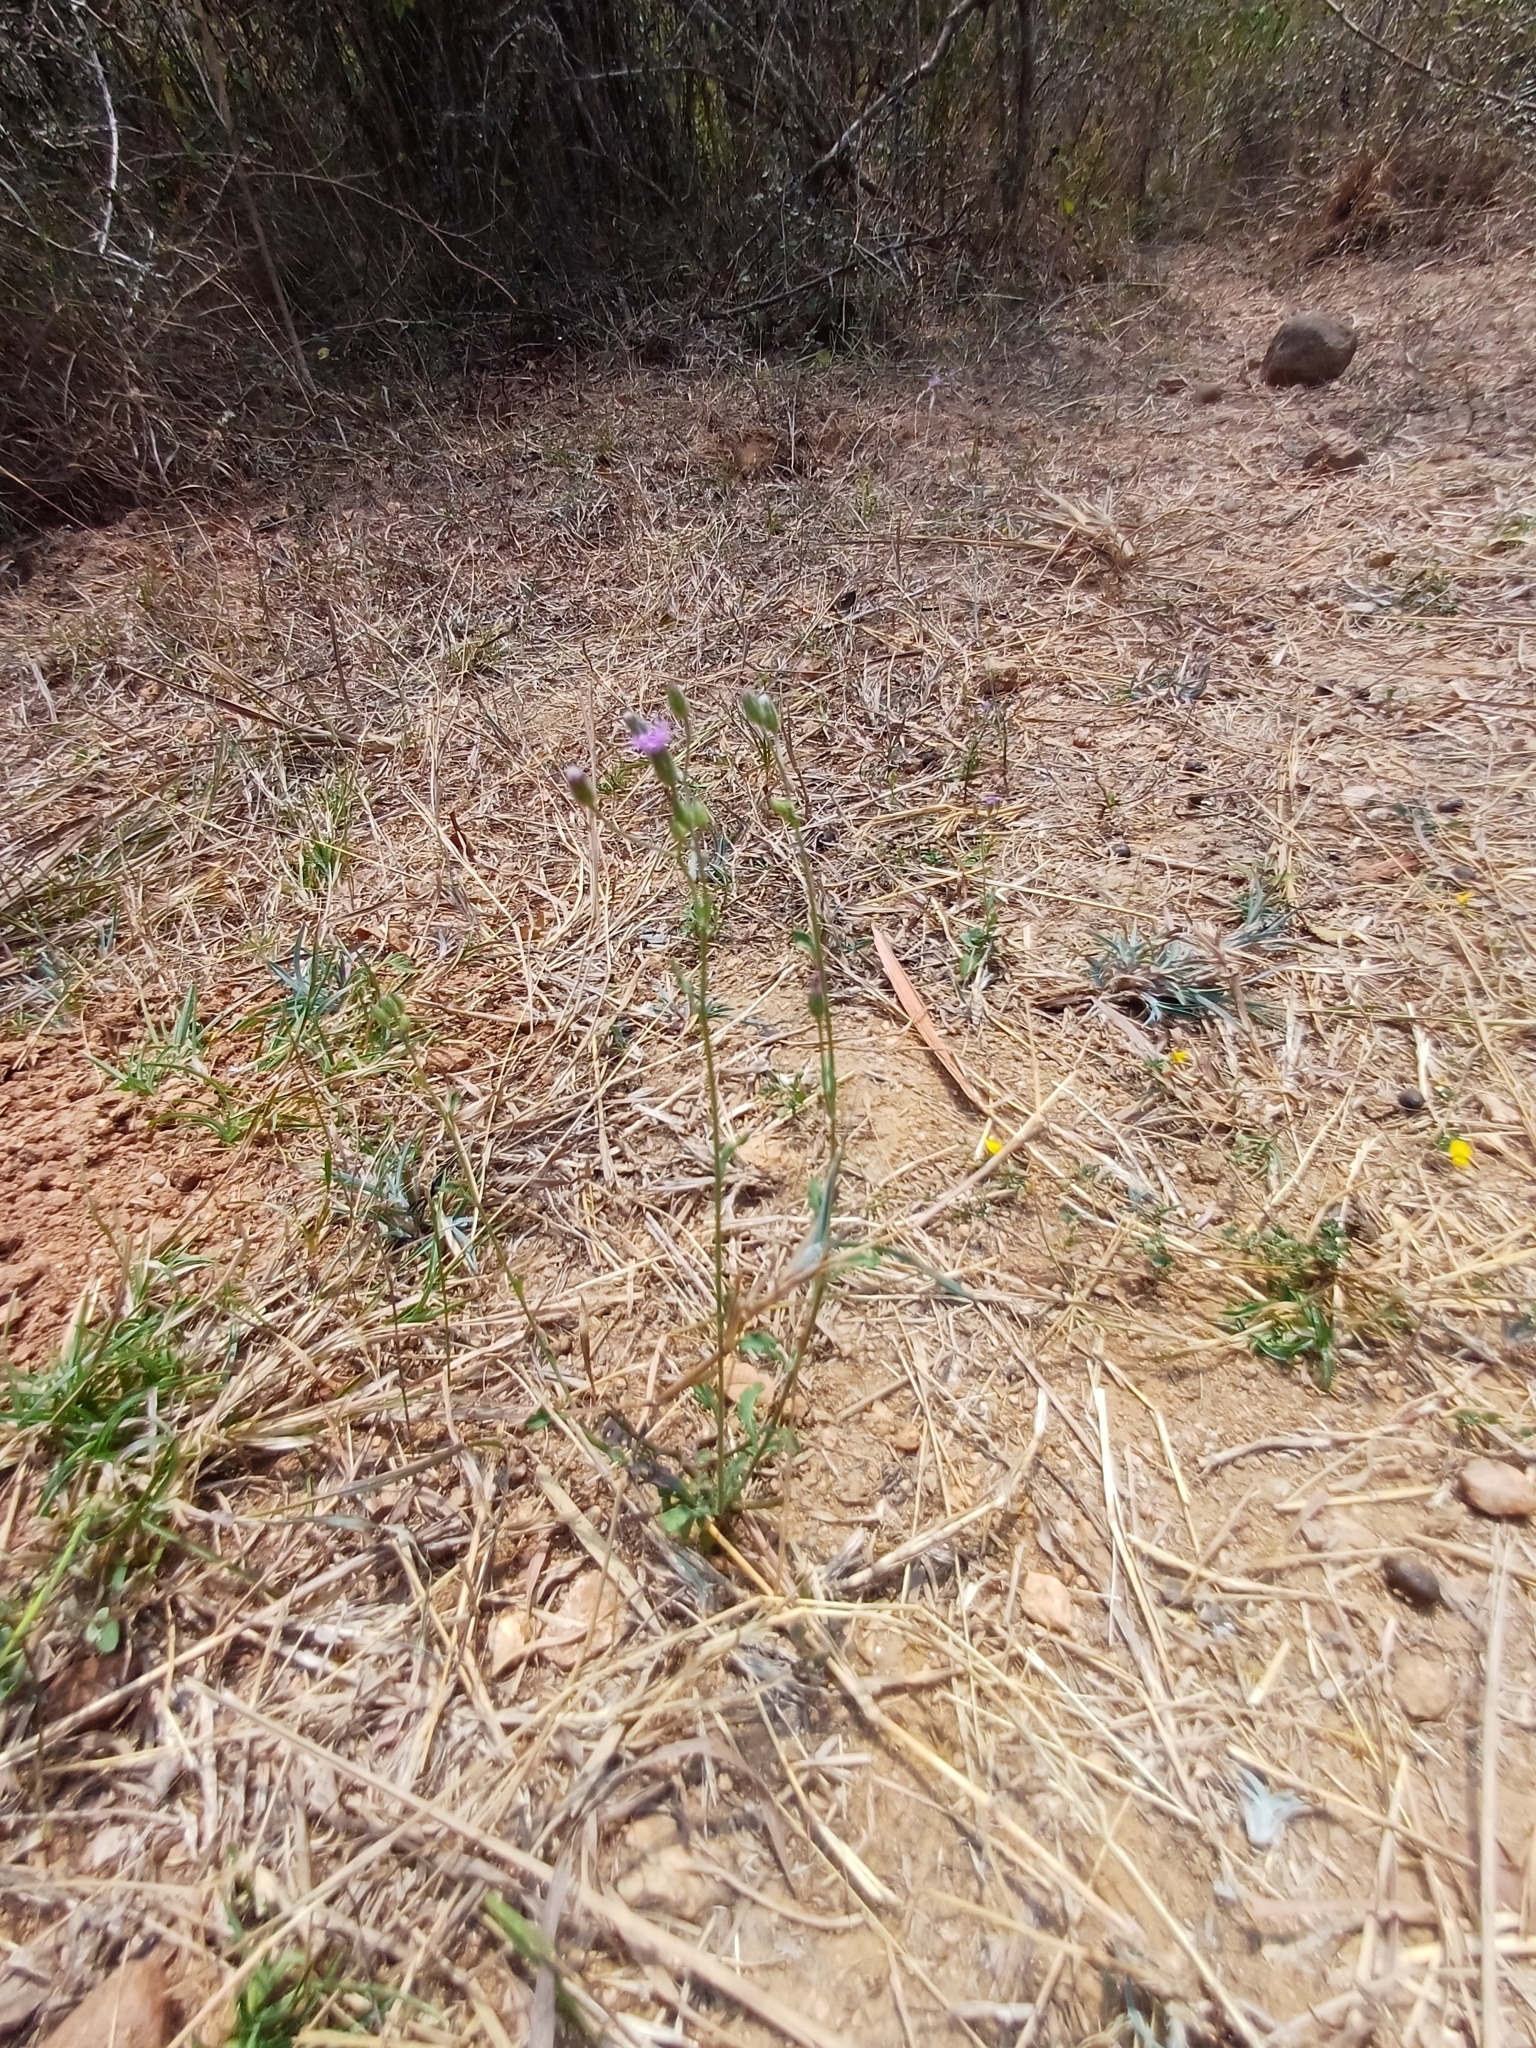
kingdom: Plantae
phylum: Tracheophyta
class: Magnoliopsida
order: Asterales
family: Asteraceae
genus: Cyanthillium
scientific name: Cyanthillium cinereum
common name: Little ironweed
